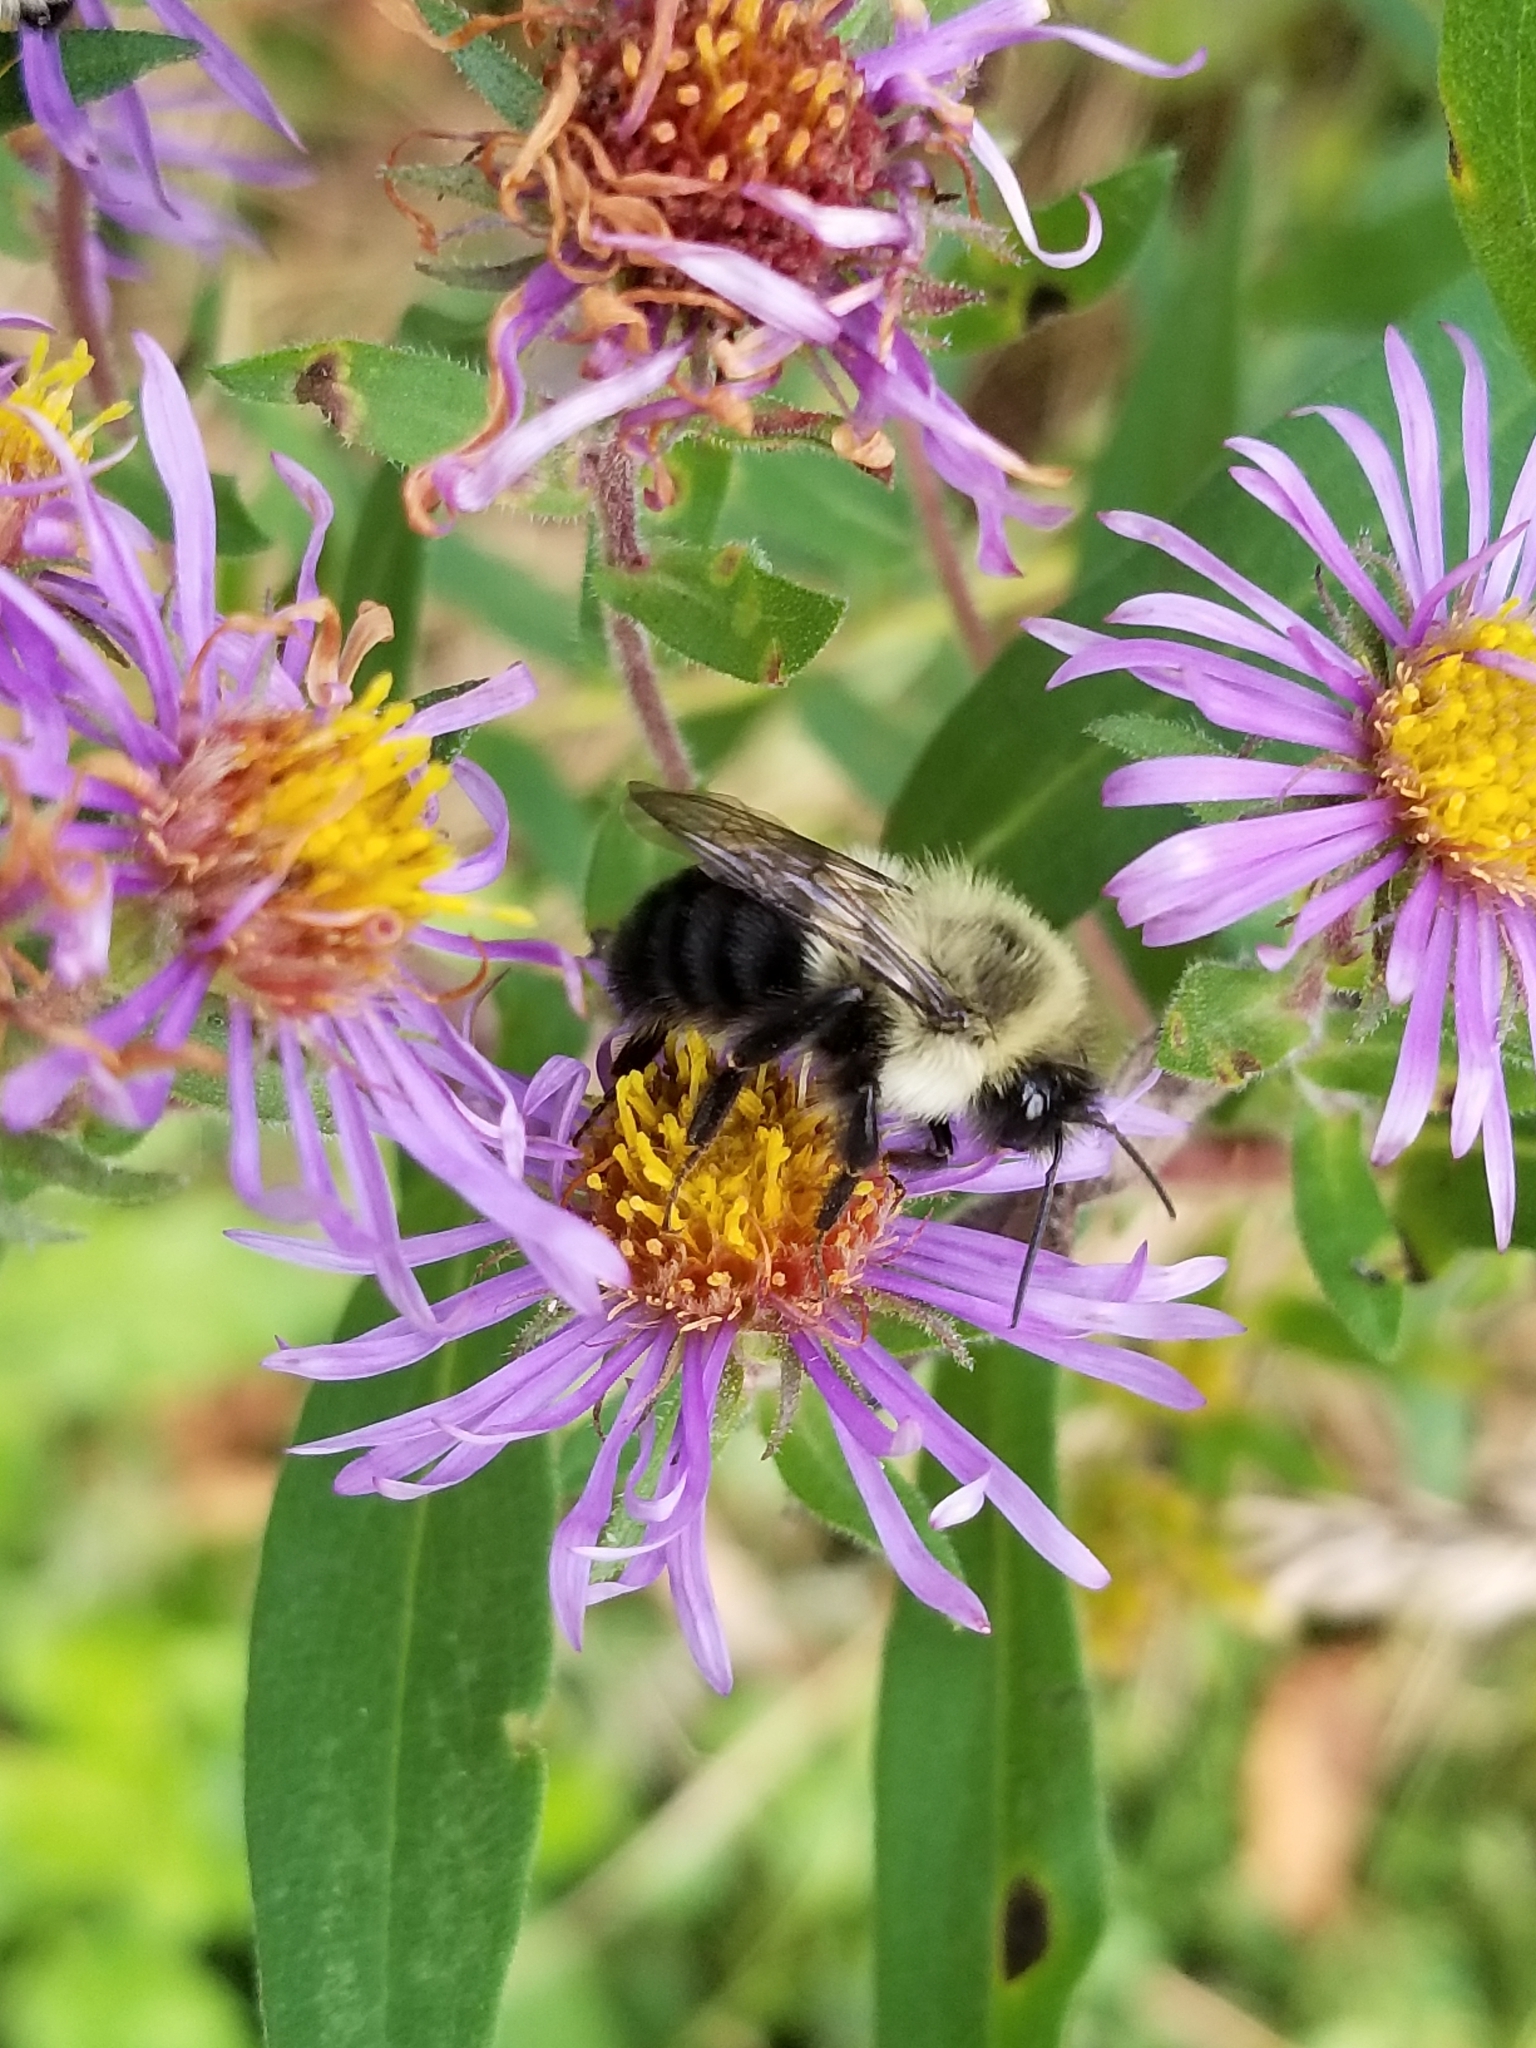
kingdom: Animalia
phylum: Arthropoda
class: Insecta
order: Hymenoptera
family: Apidae
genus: Bombus
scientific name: Bombus impatiens
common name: Common eastern bumble bee
